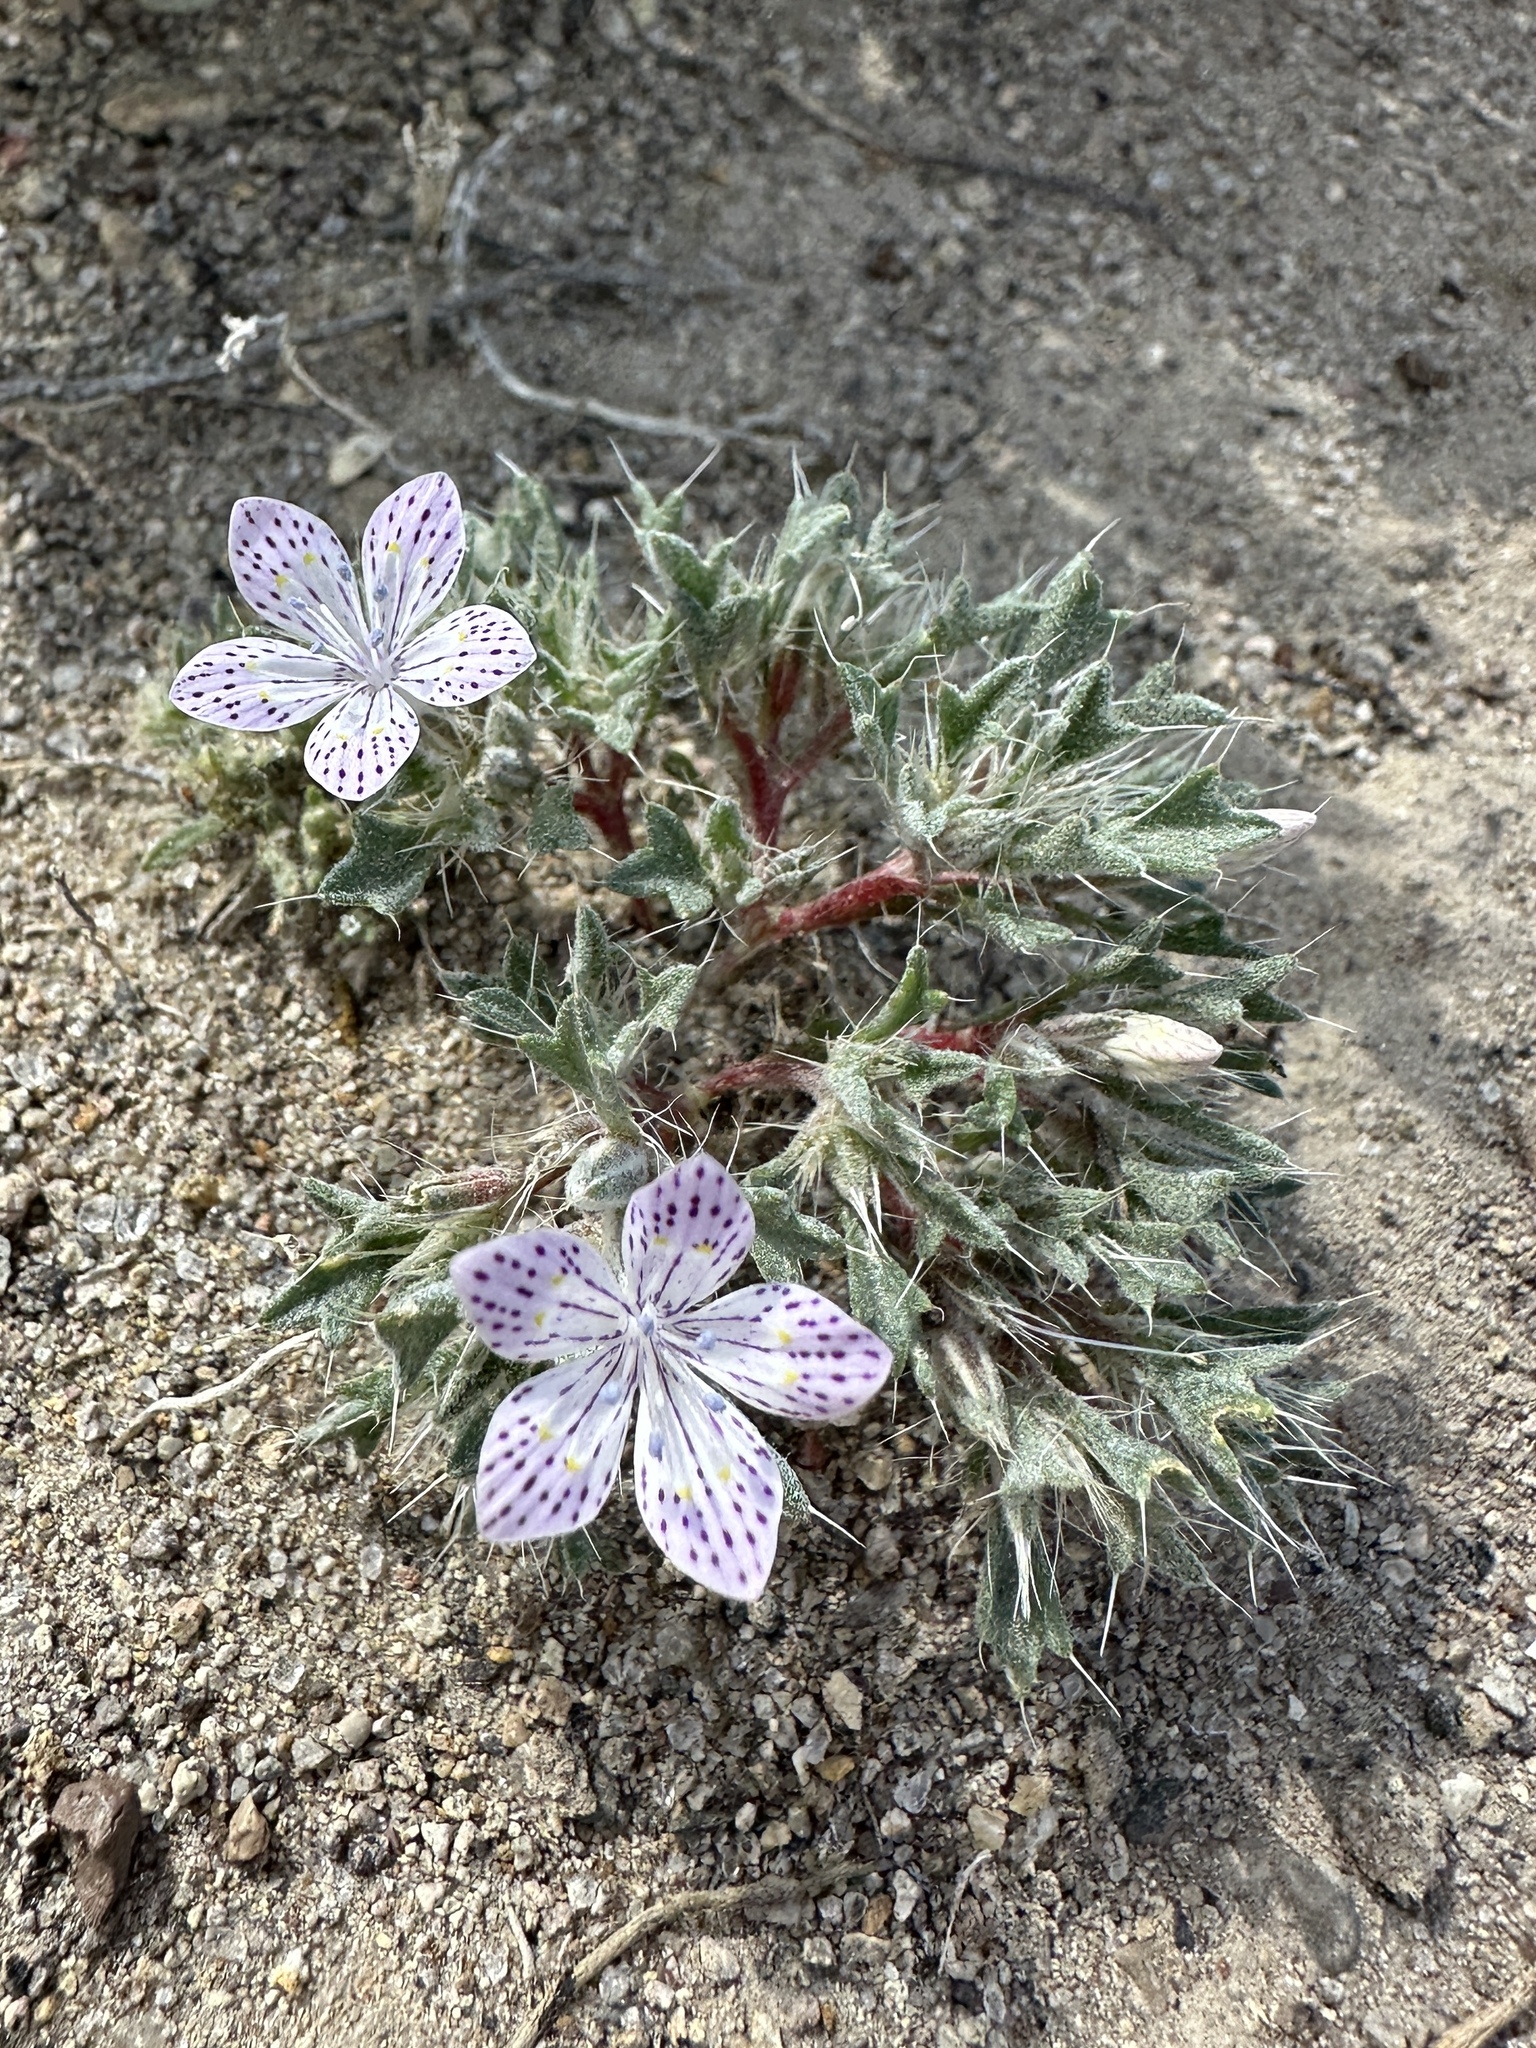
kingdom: Plantae
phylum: Tracheophyta
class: Magnoliopsida
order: Ericales
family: Polemoniaceae
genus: Langloisia
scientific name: Langloisia setosissima
